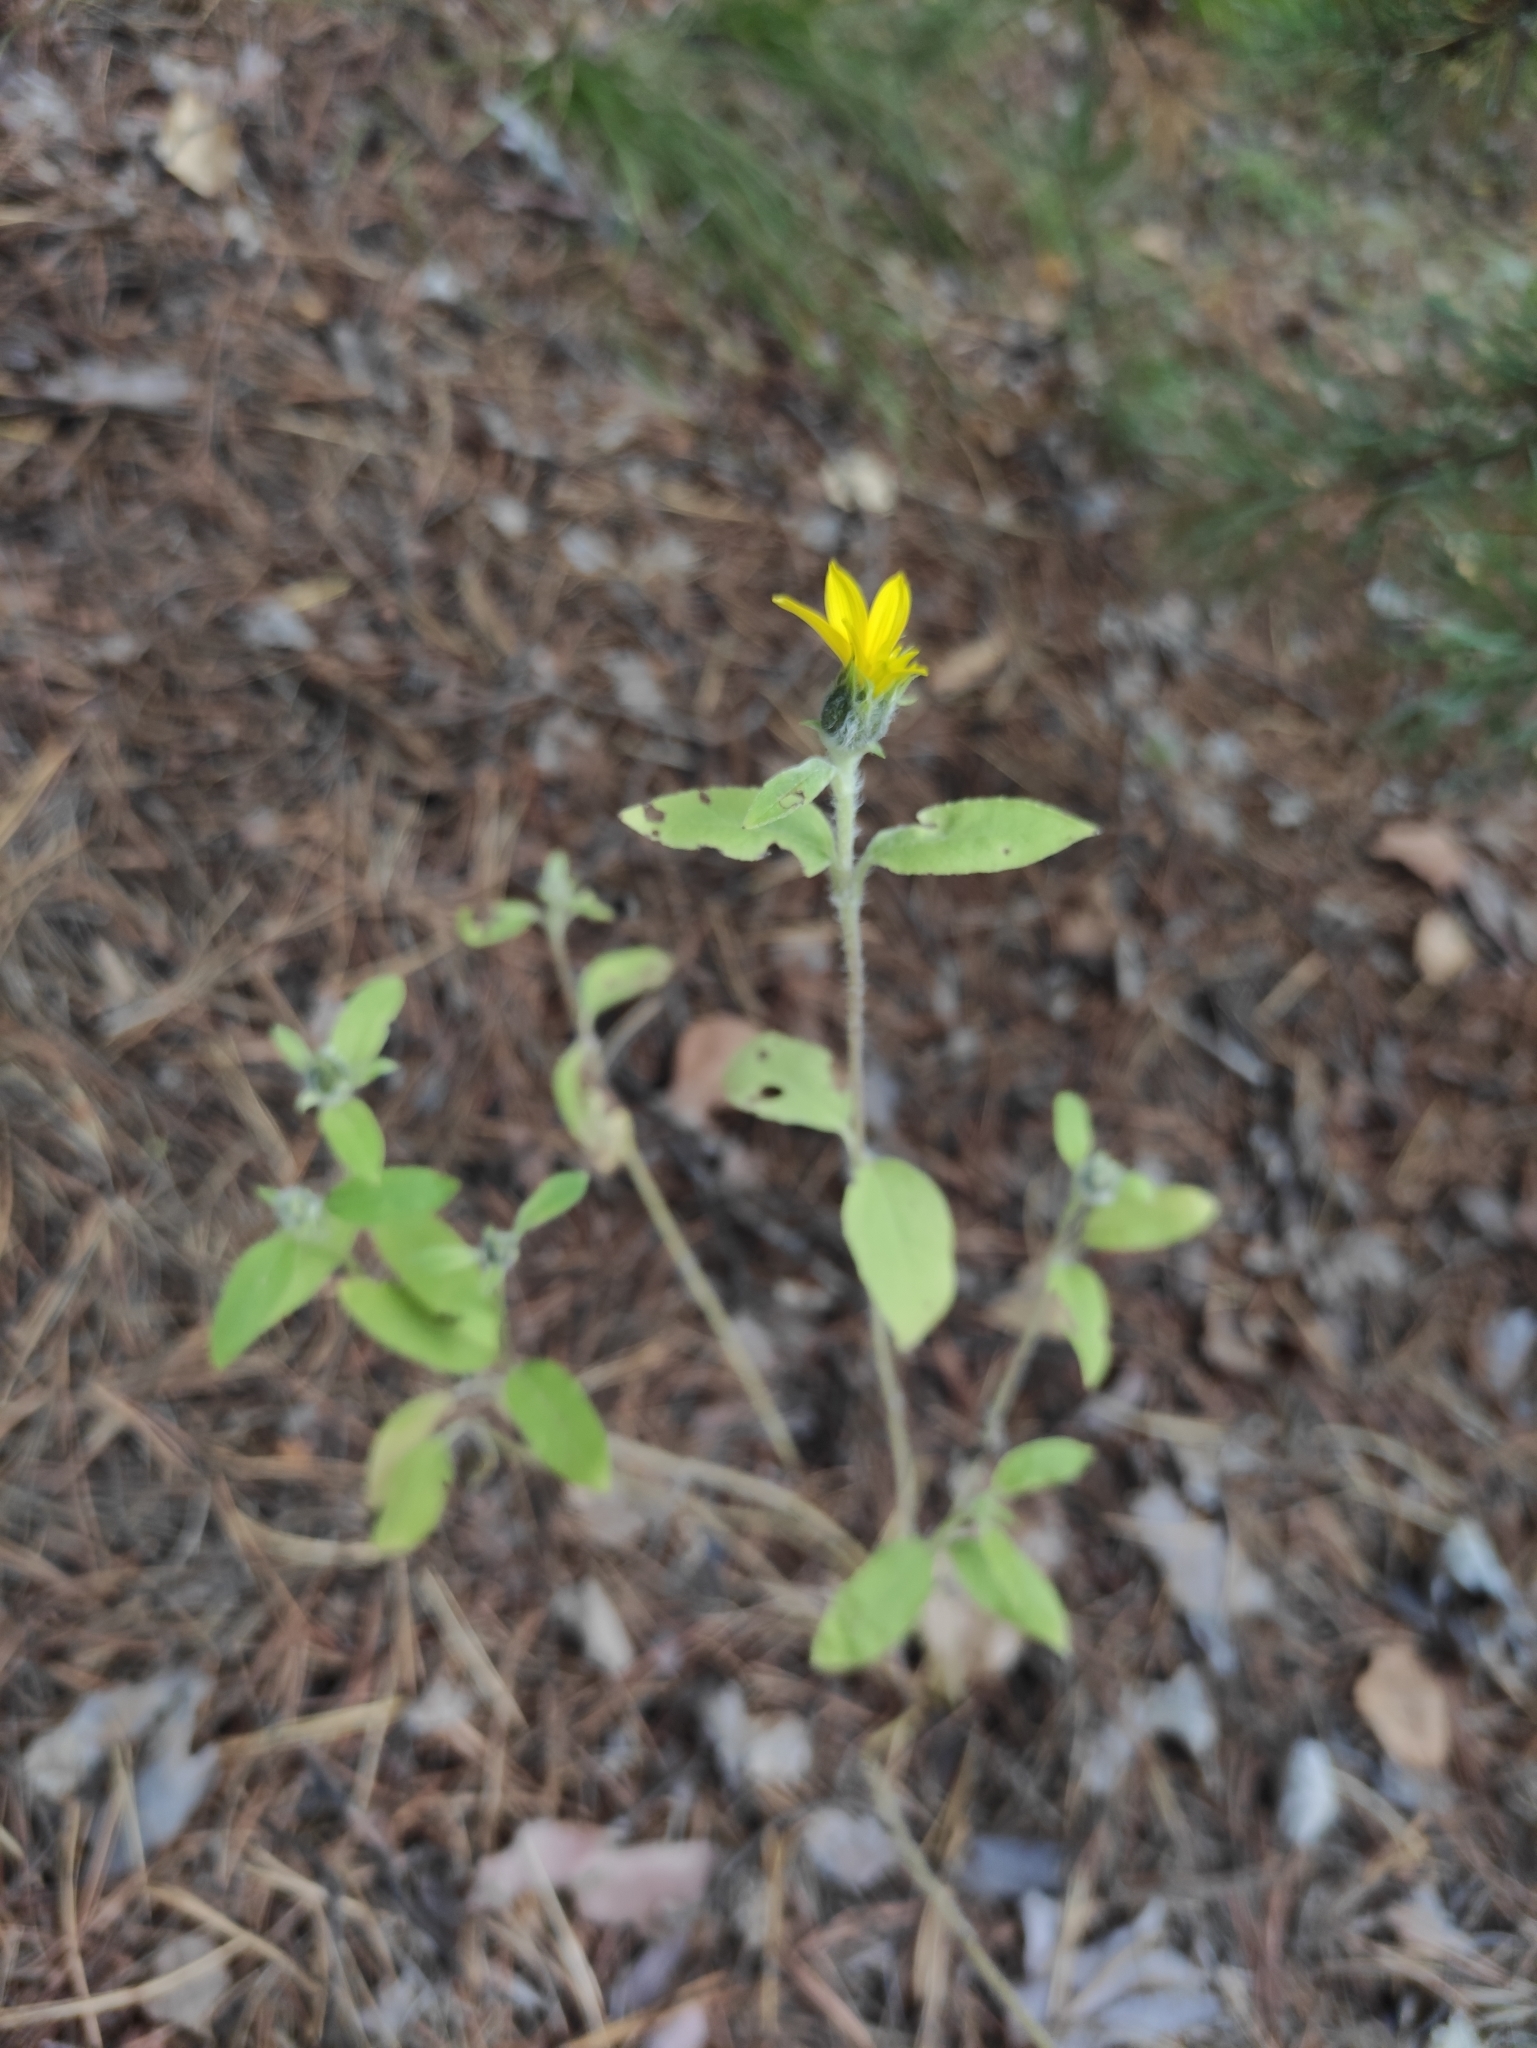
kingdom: Plantae
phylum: Tracheophyta
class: Magnoliopsida
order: Asterales
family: Asteraceae
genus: Helianthus
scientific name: Helianthus annuus
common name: Sunflower
